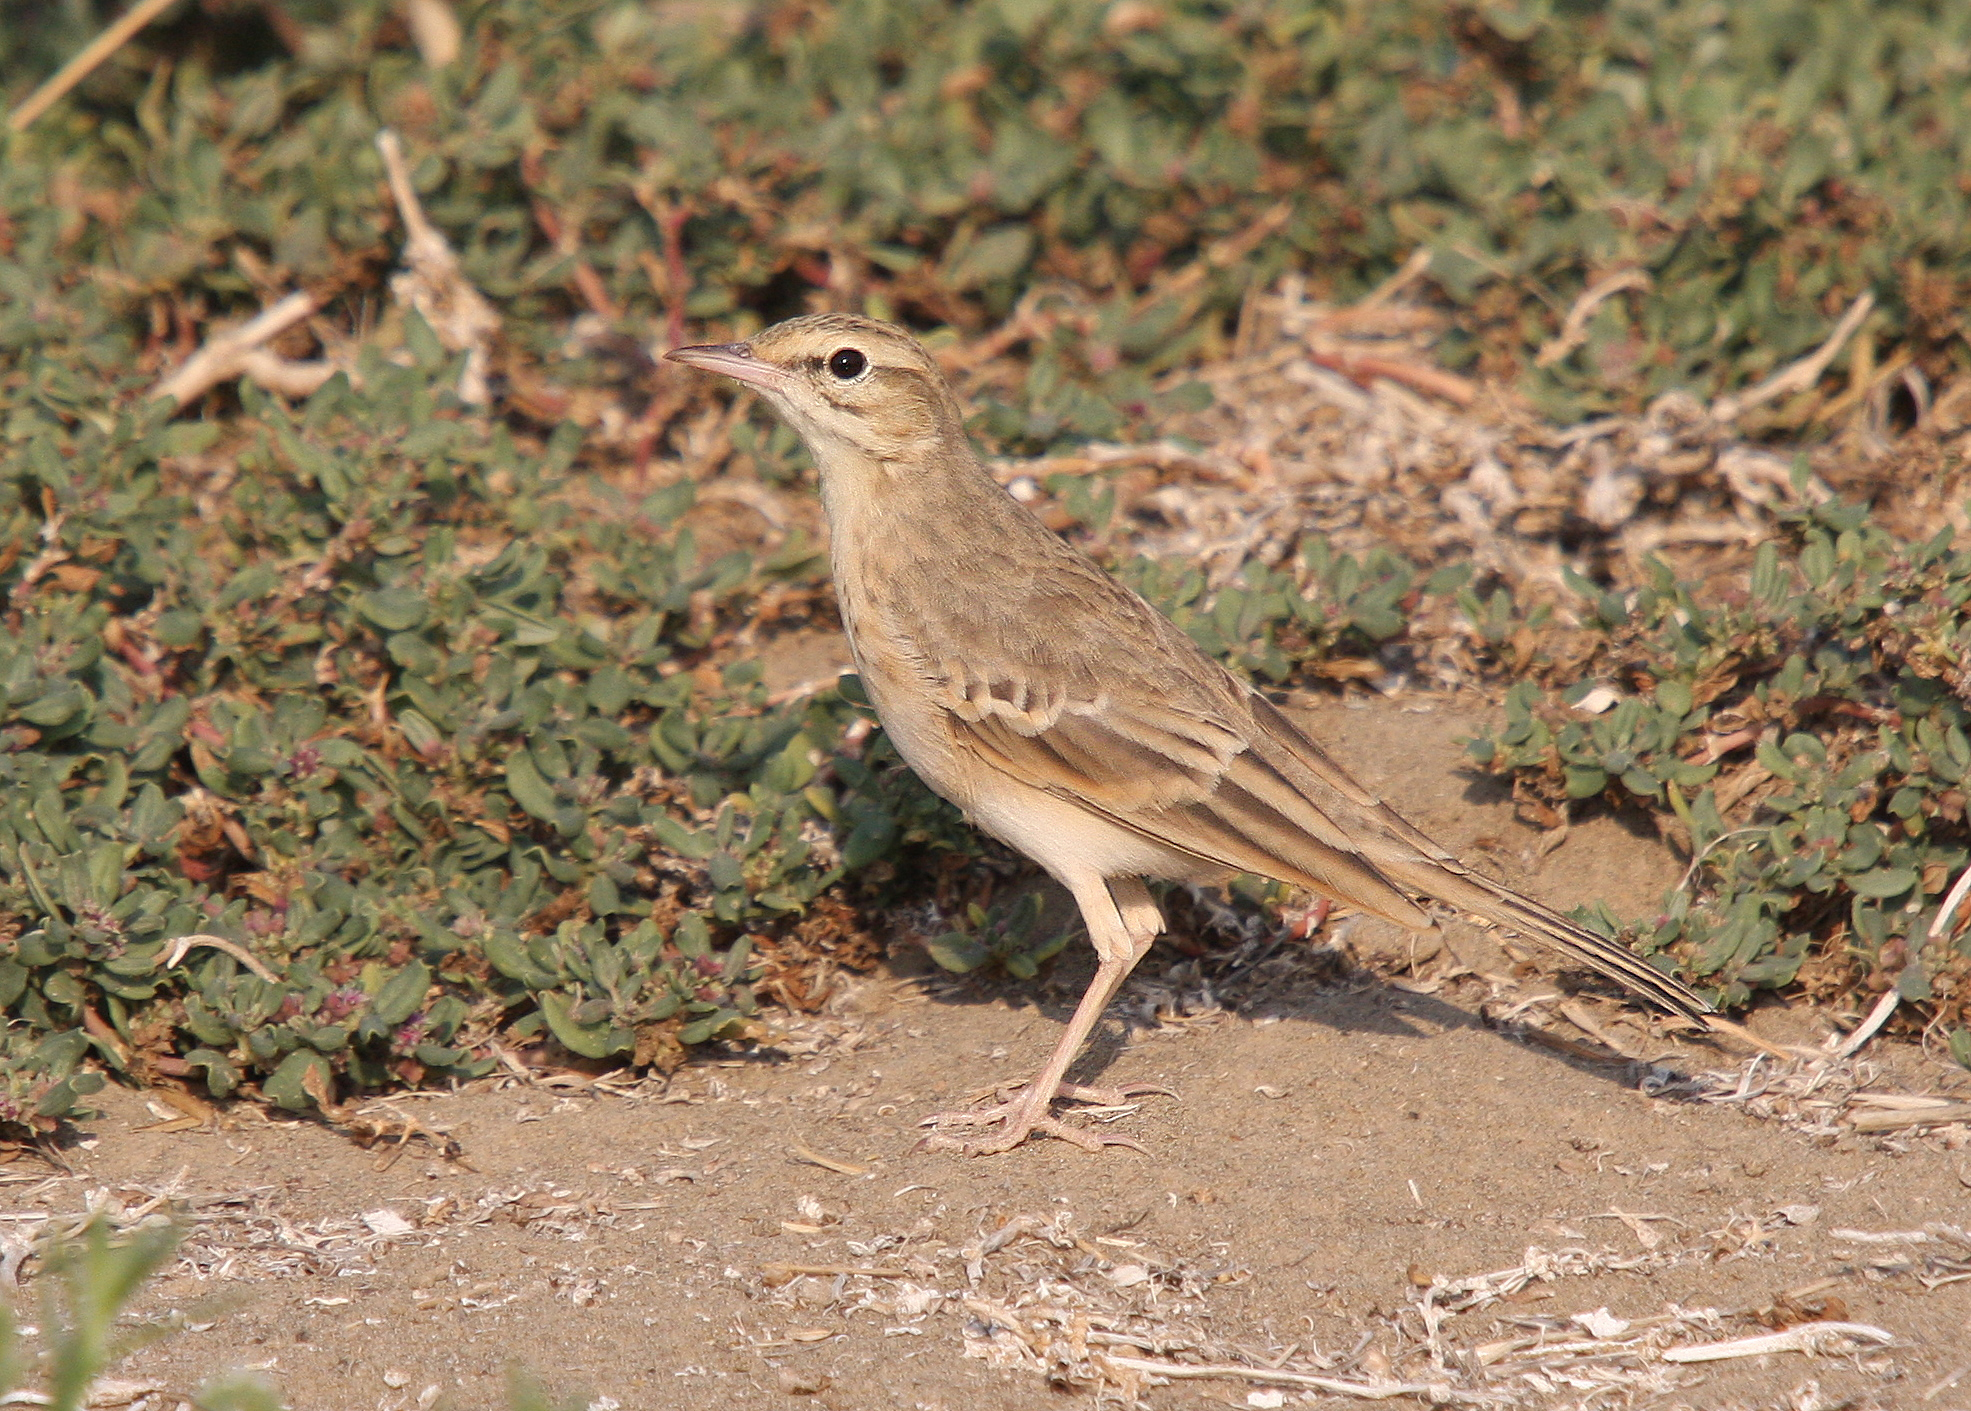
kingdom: Animalia
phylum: Chordata
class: Aves
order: Passeriformes
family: Motacillidae
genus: Anthus
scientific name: Anthus campestris
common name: Tawny pipit
